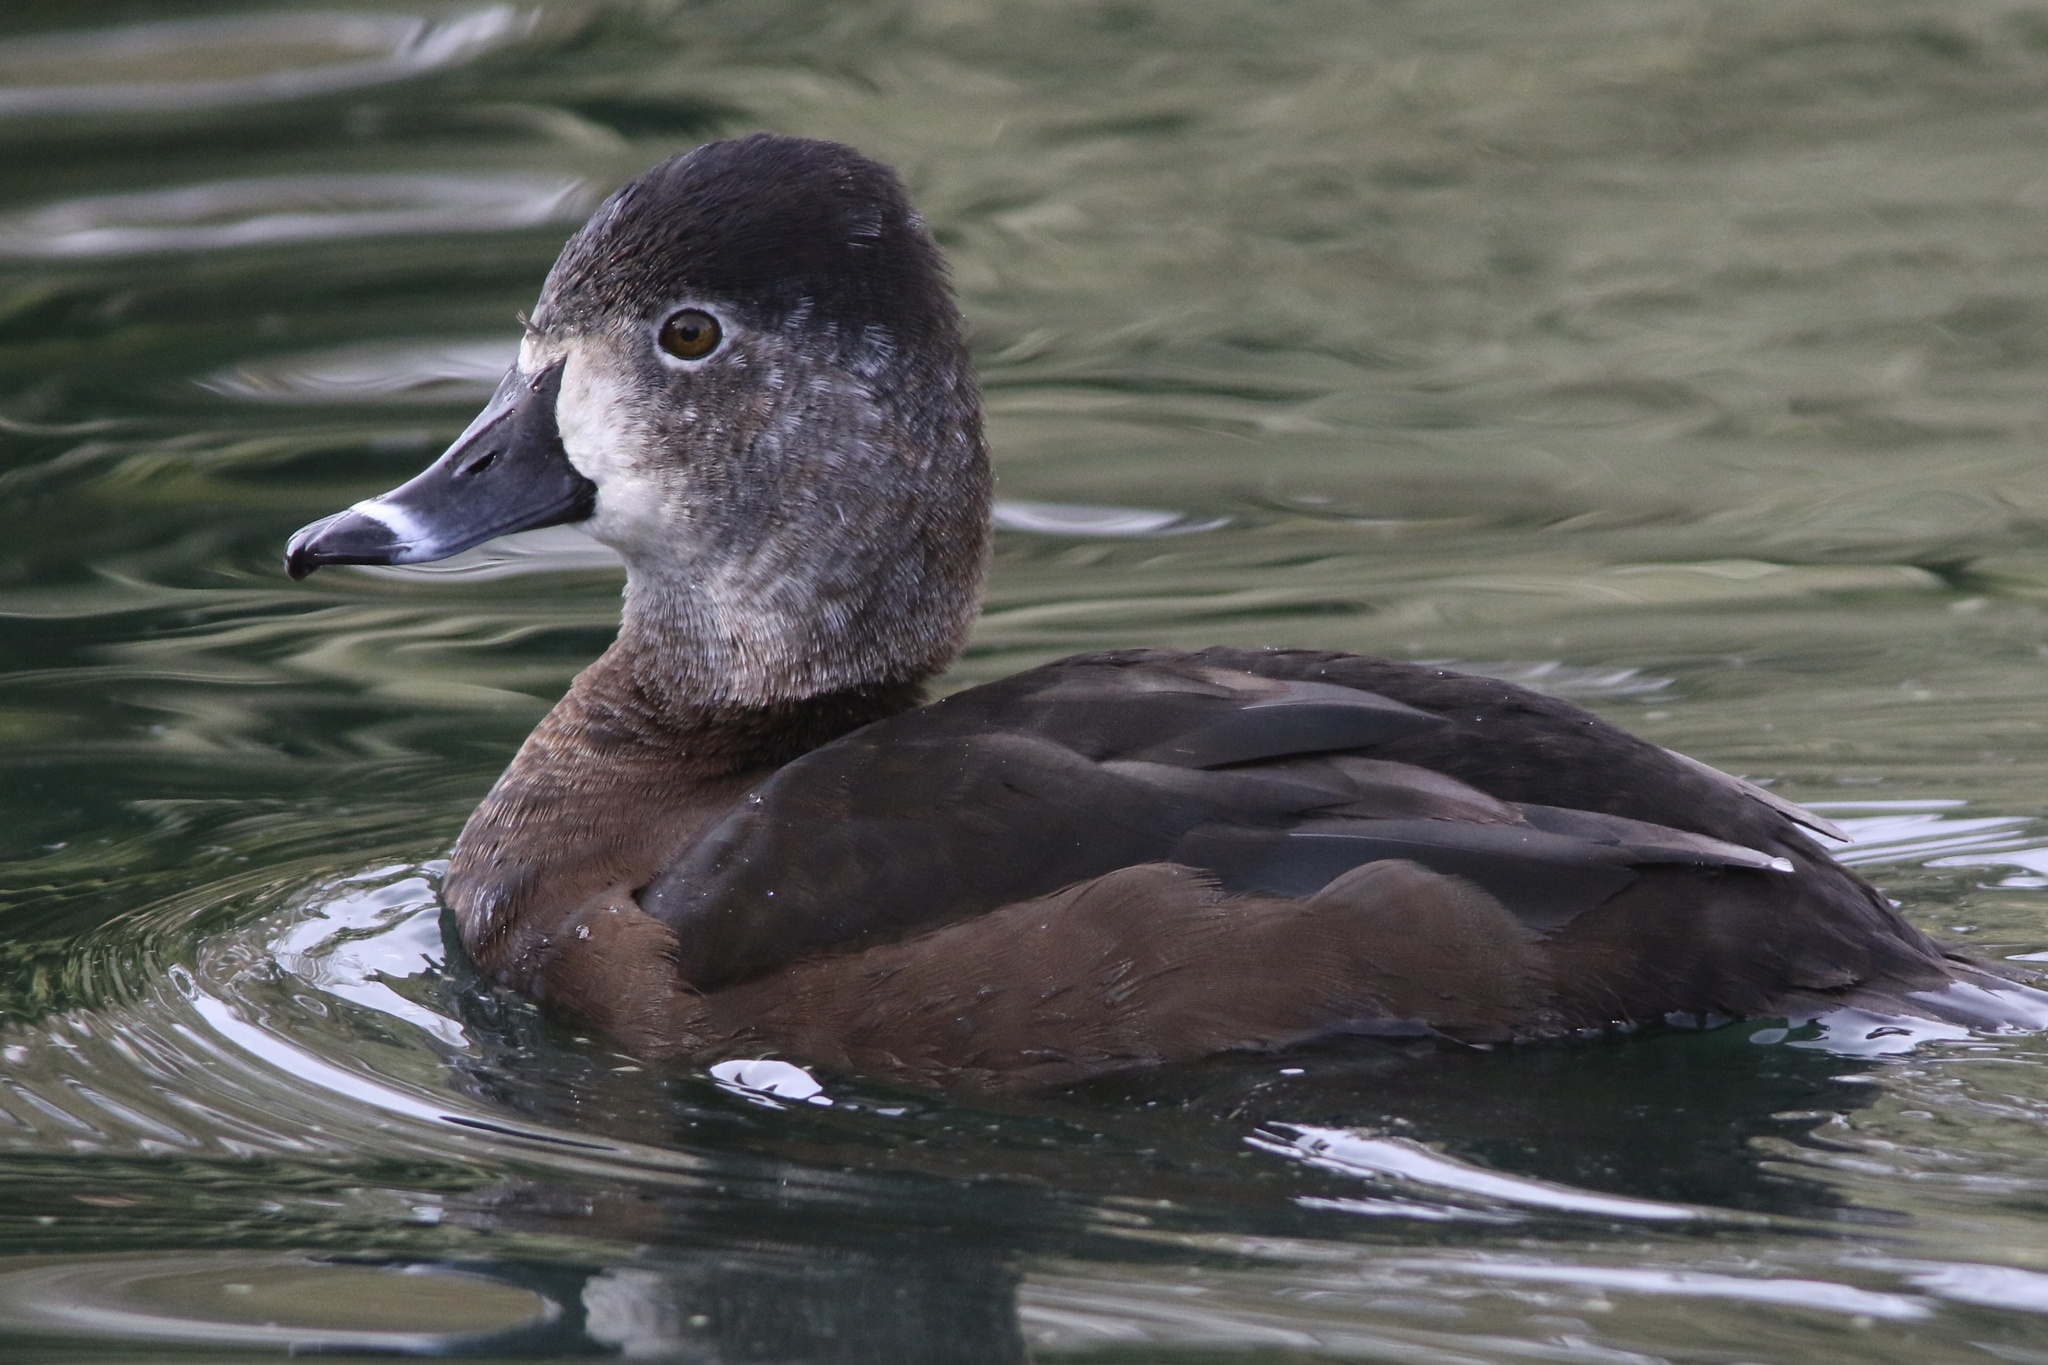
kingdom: Animalia
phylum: Chordata
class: Aves
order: Anseriformes
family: Anatidae
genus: Aythya
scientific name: Aythya collaris
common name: Ring-necked duck
